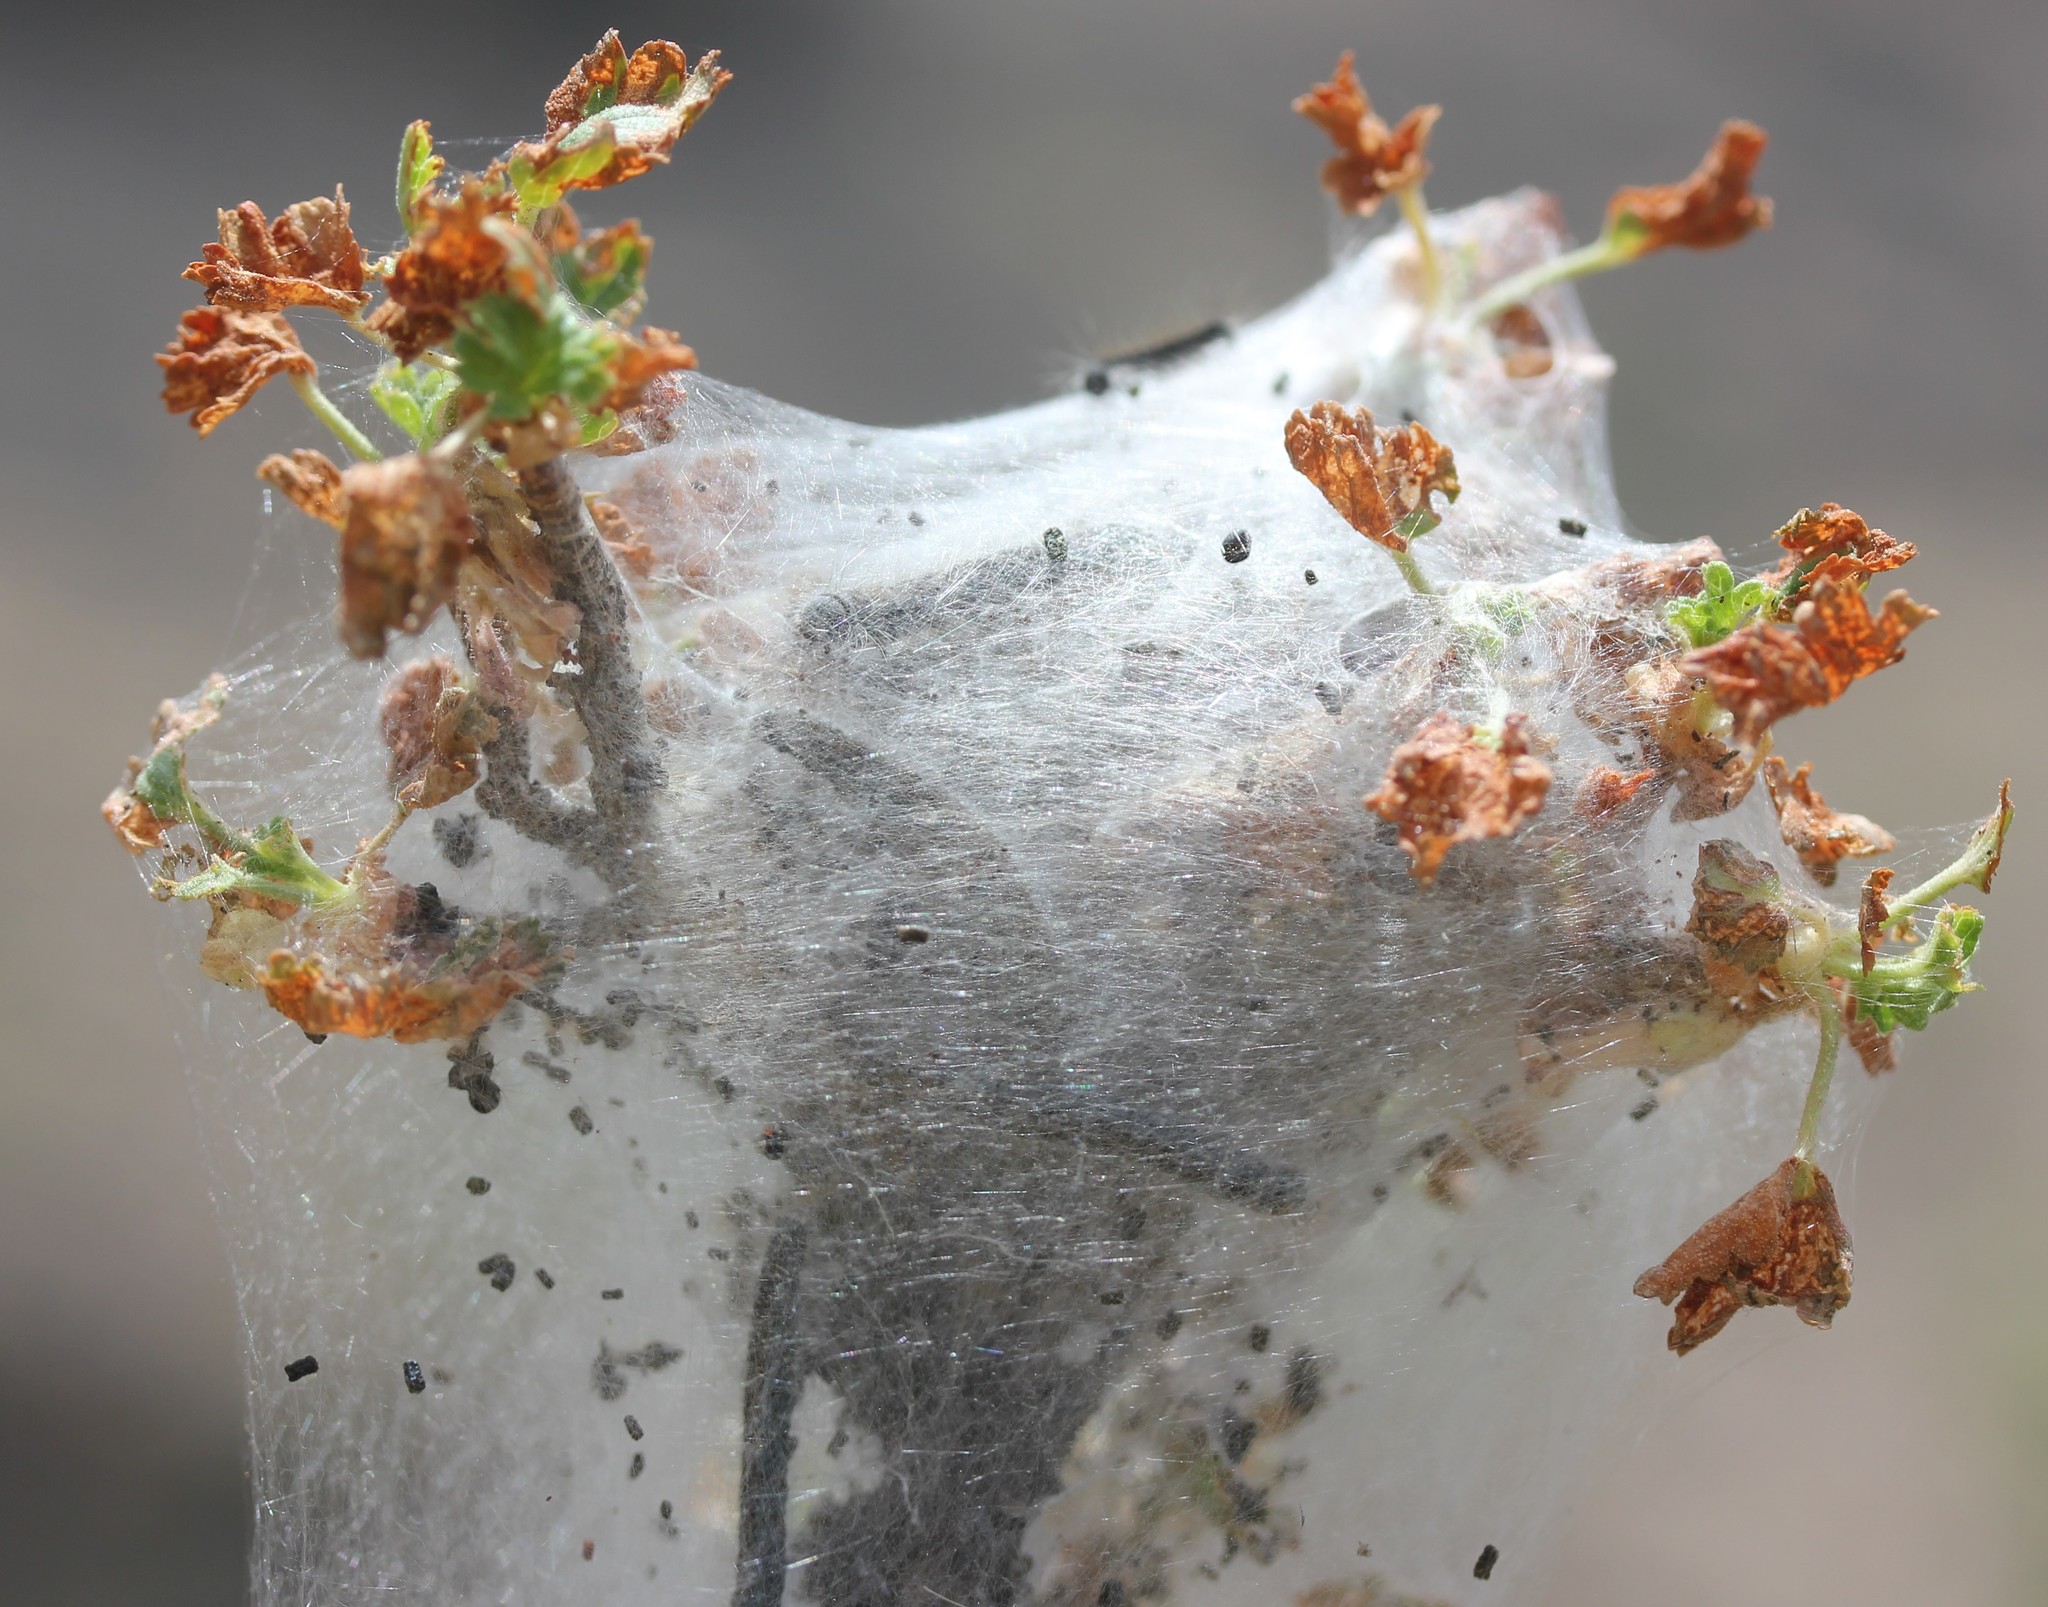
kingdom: Animalia
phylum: Arthropoda
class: Insecta
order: Lepidoptera
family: Lasiocampidae
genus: Malacosoma
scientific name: Malacosoma incurva
